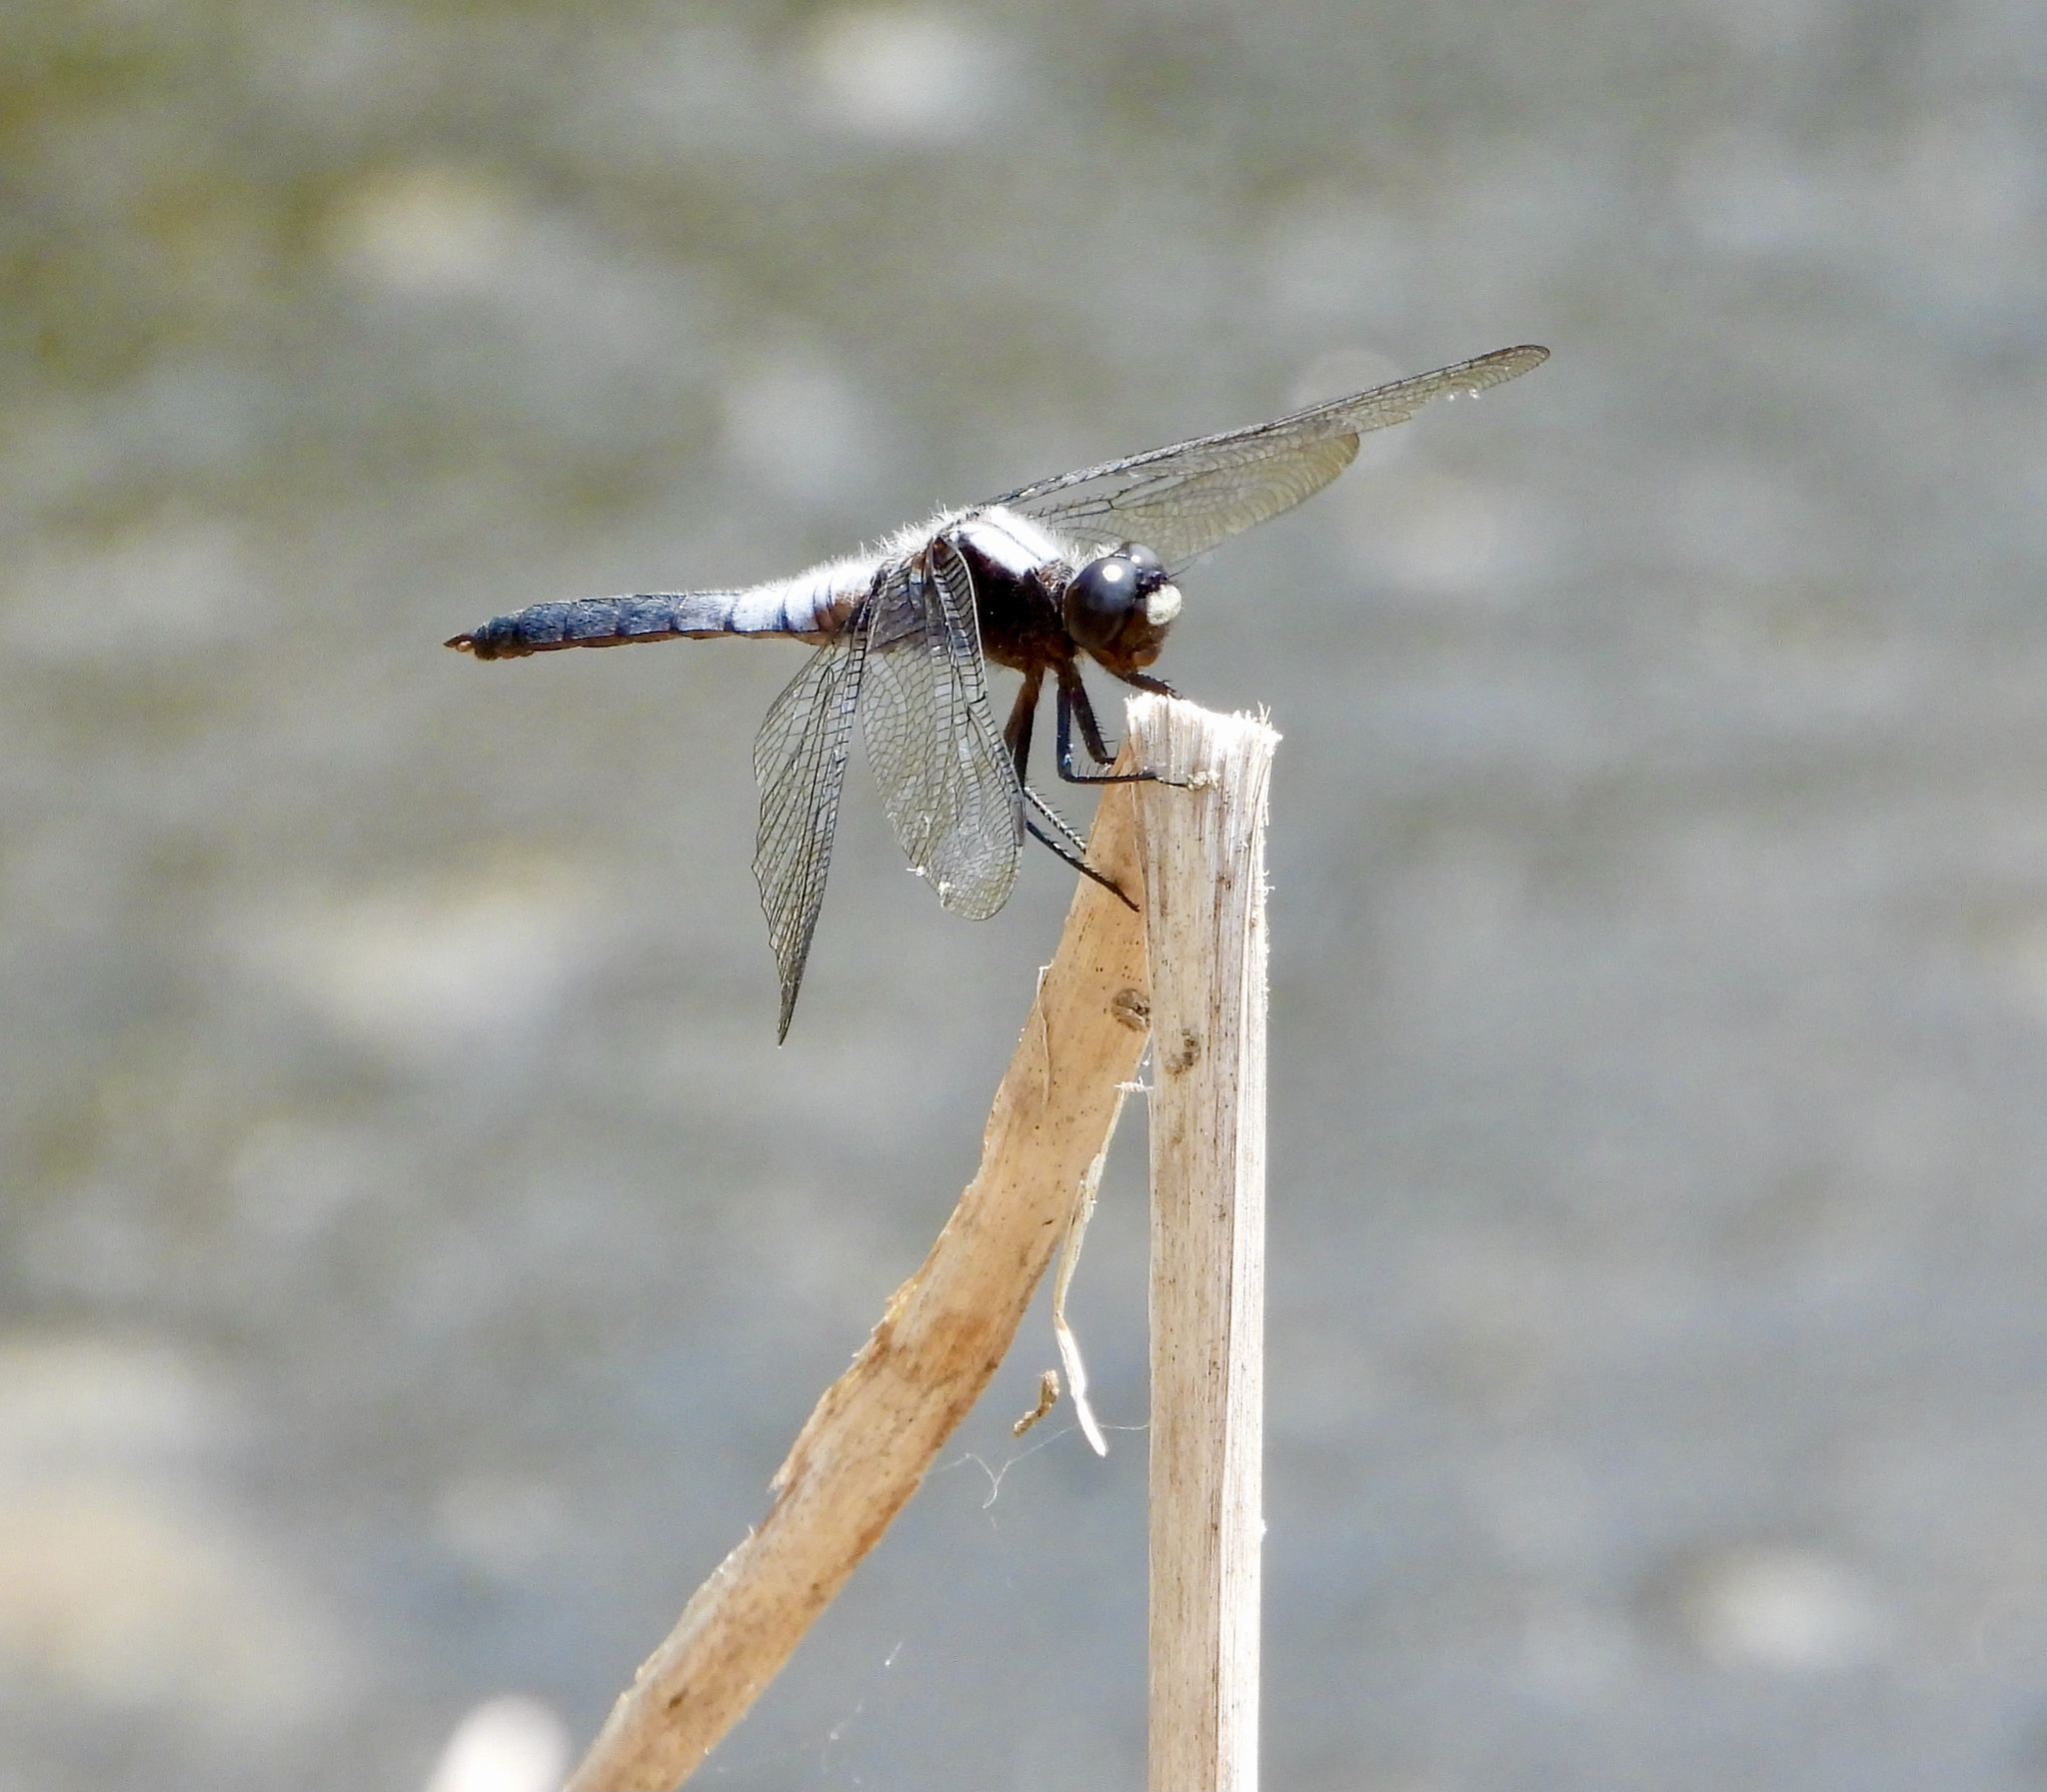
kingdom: Animalia
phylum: Arthropoda
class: Insecta
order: Odonata
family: Libellulidae
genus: Ladona
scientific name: Ladona julia
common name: Chalk-fronted corporal
